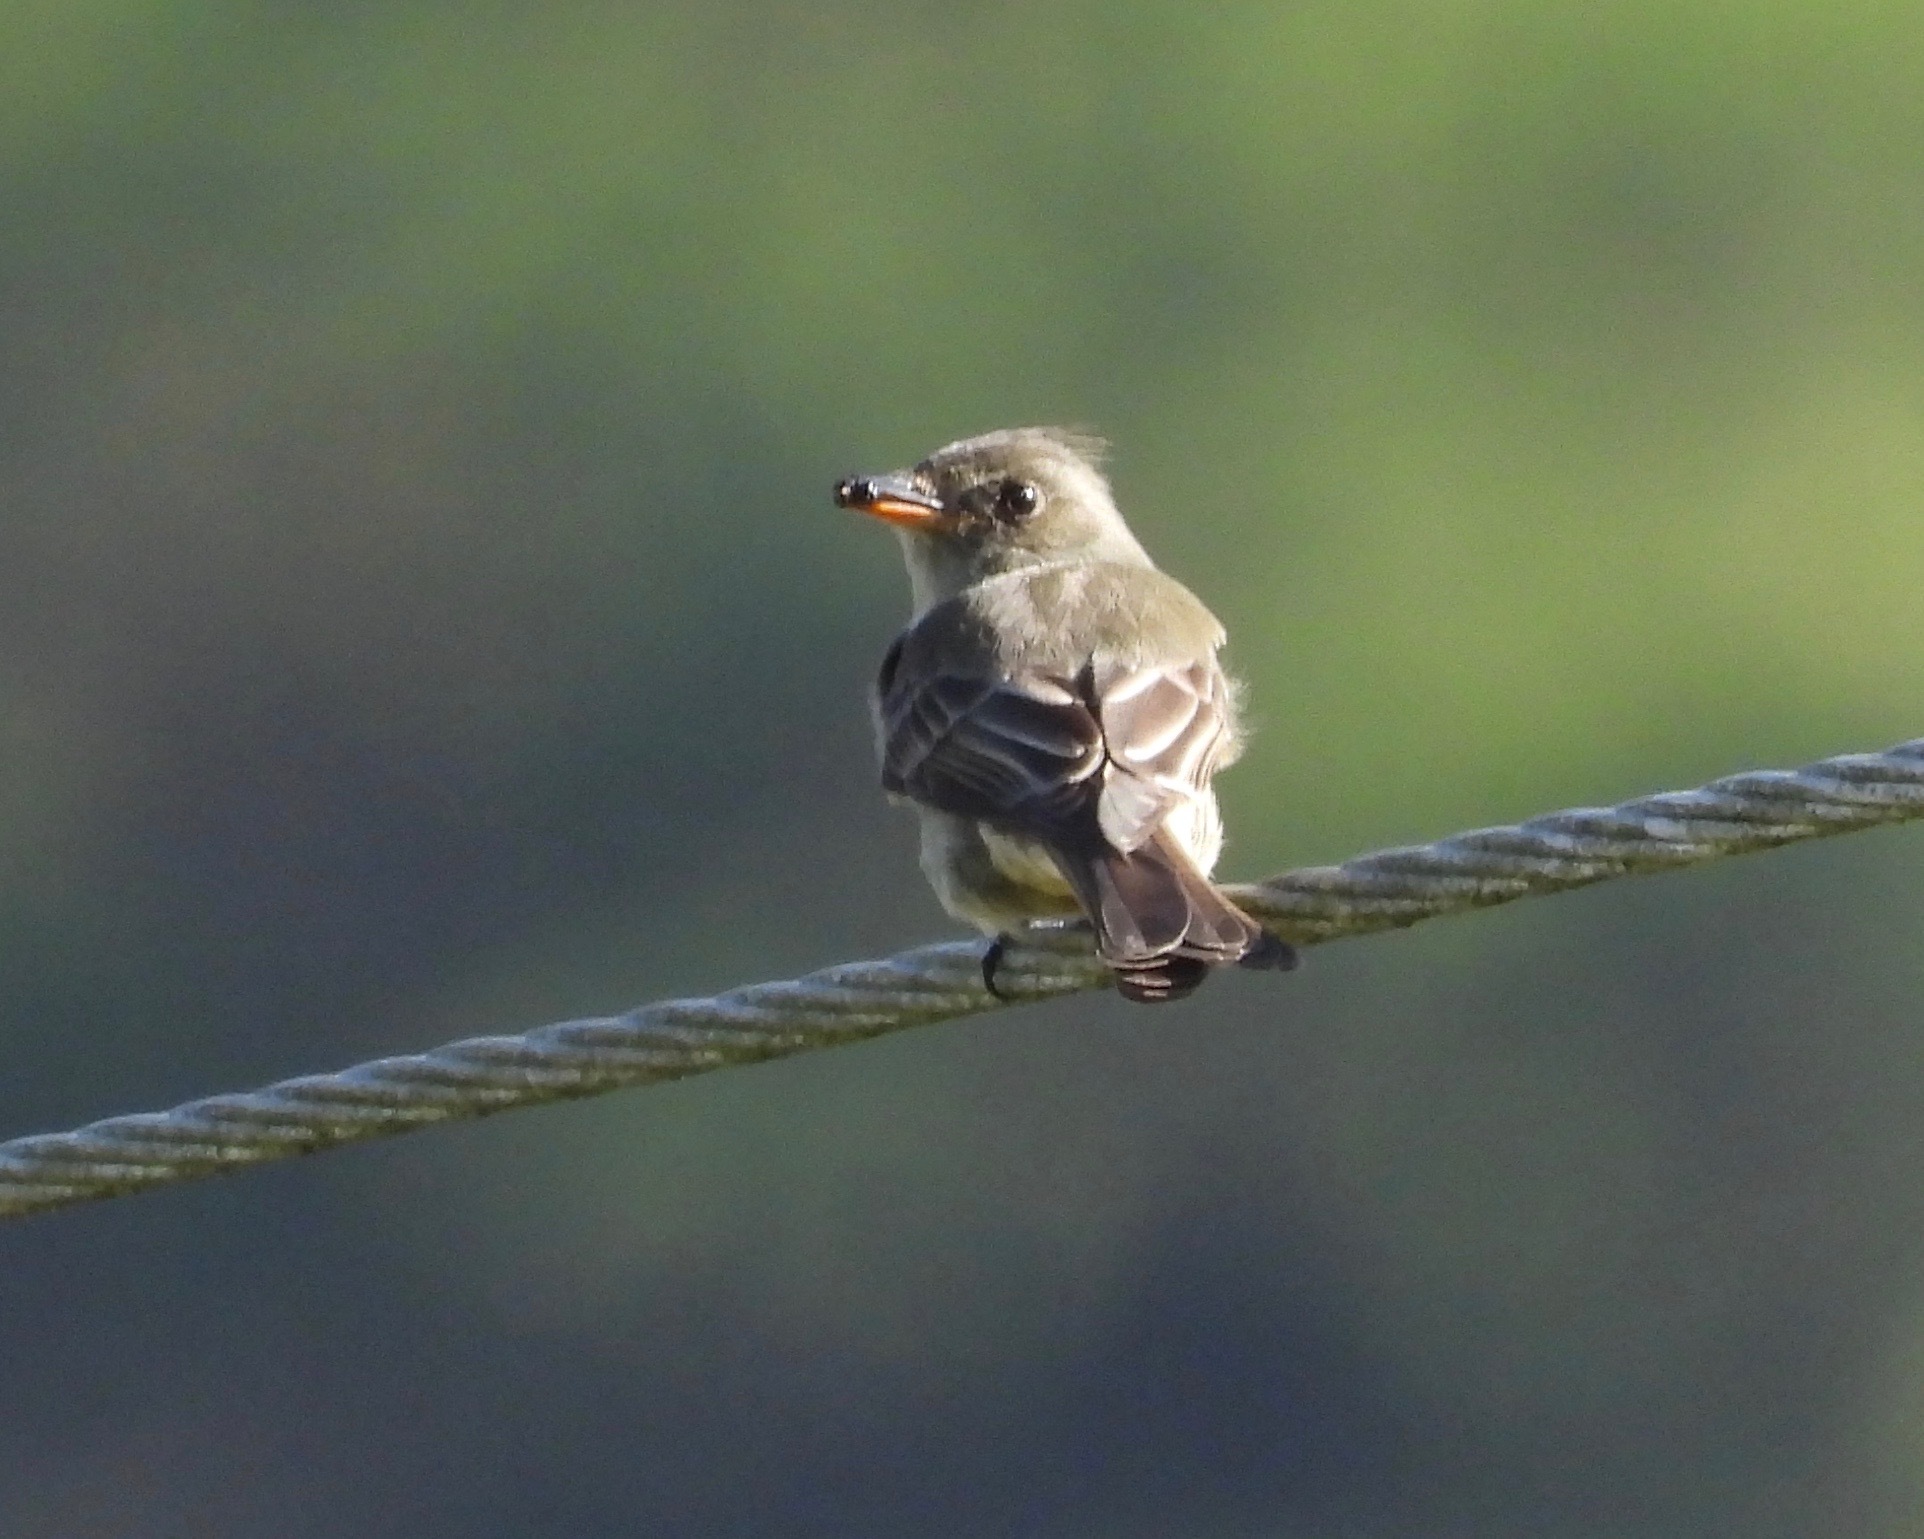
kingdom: Animalia
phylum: Chordata
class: Aves
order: Passeriformes
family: Tyrannidae
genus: Contopus
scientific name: Contopus pertinax
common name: Greater pewee
